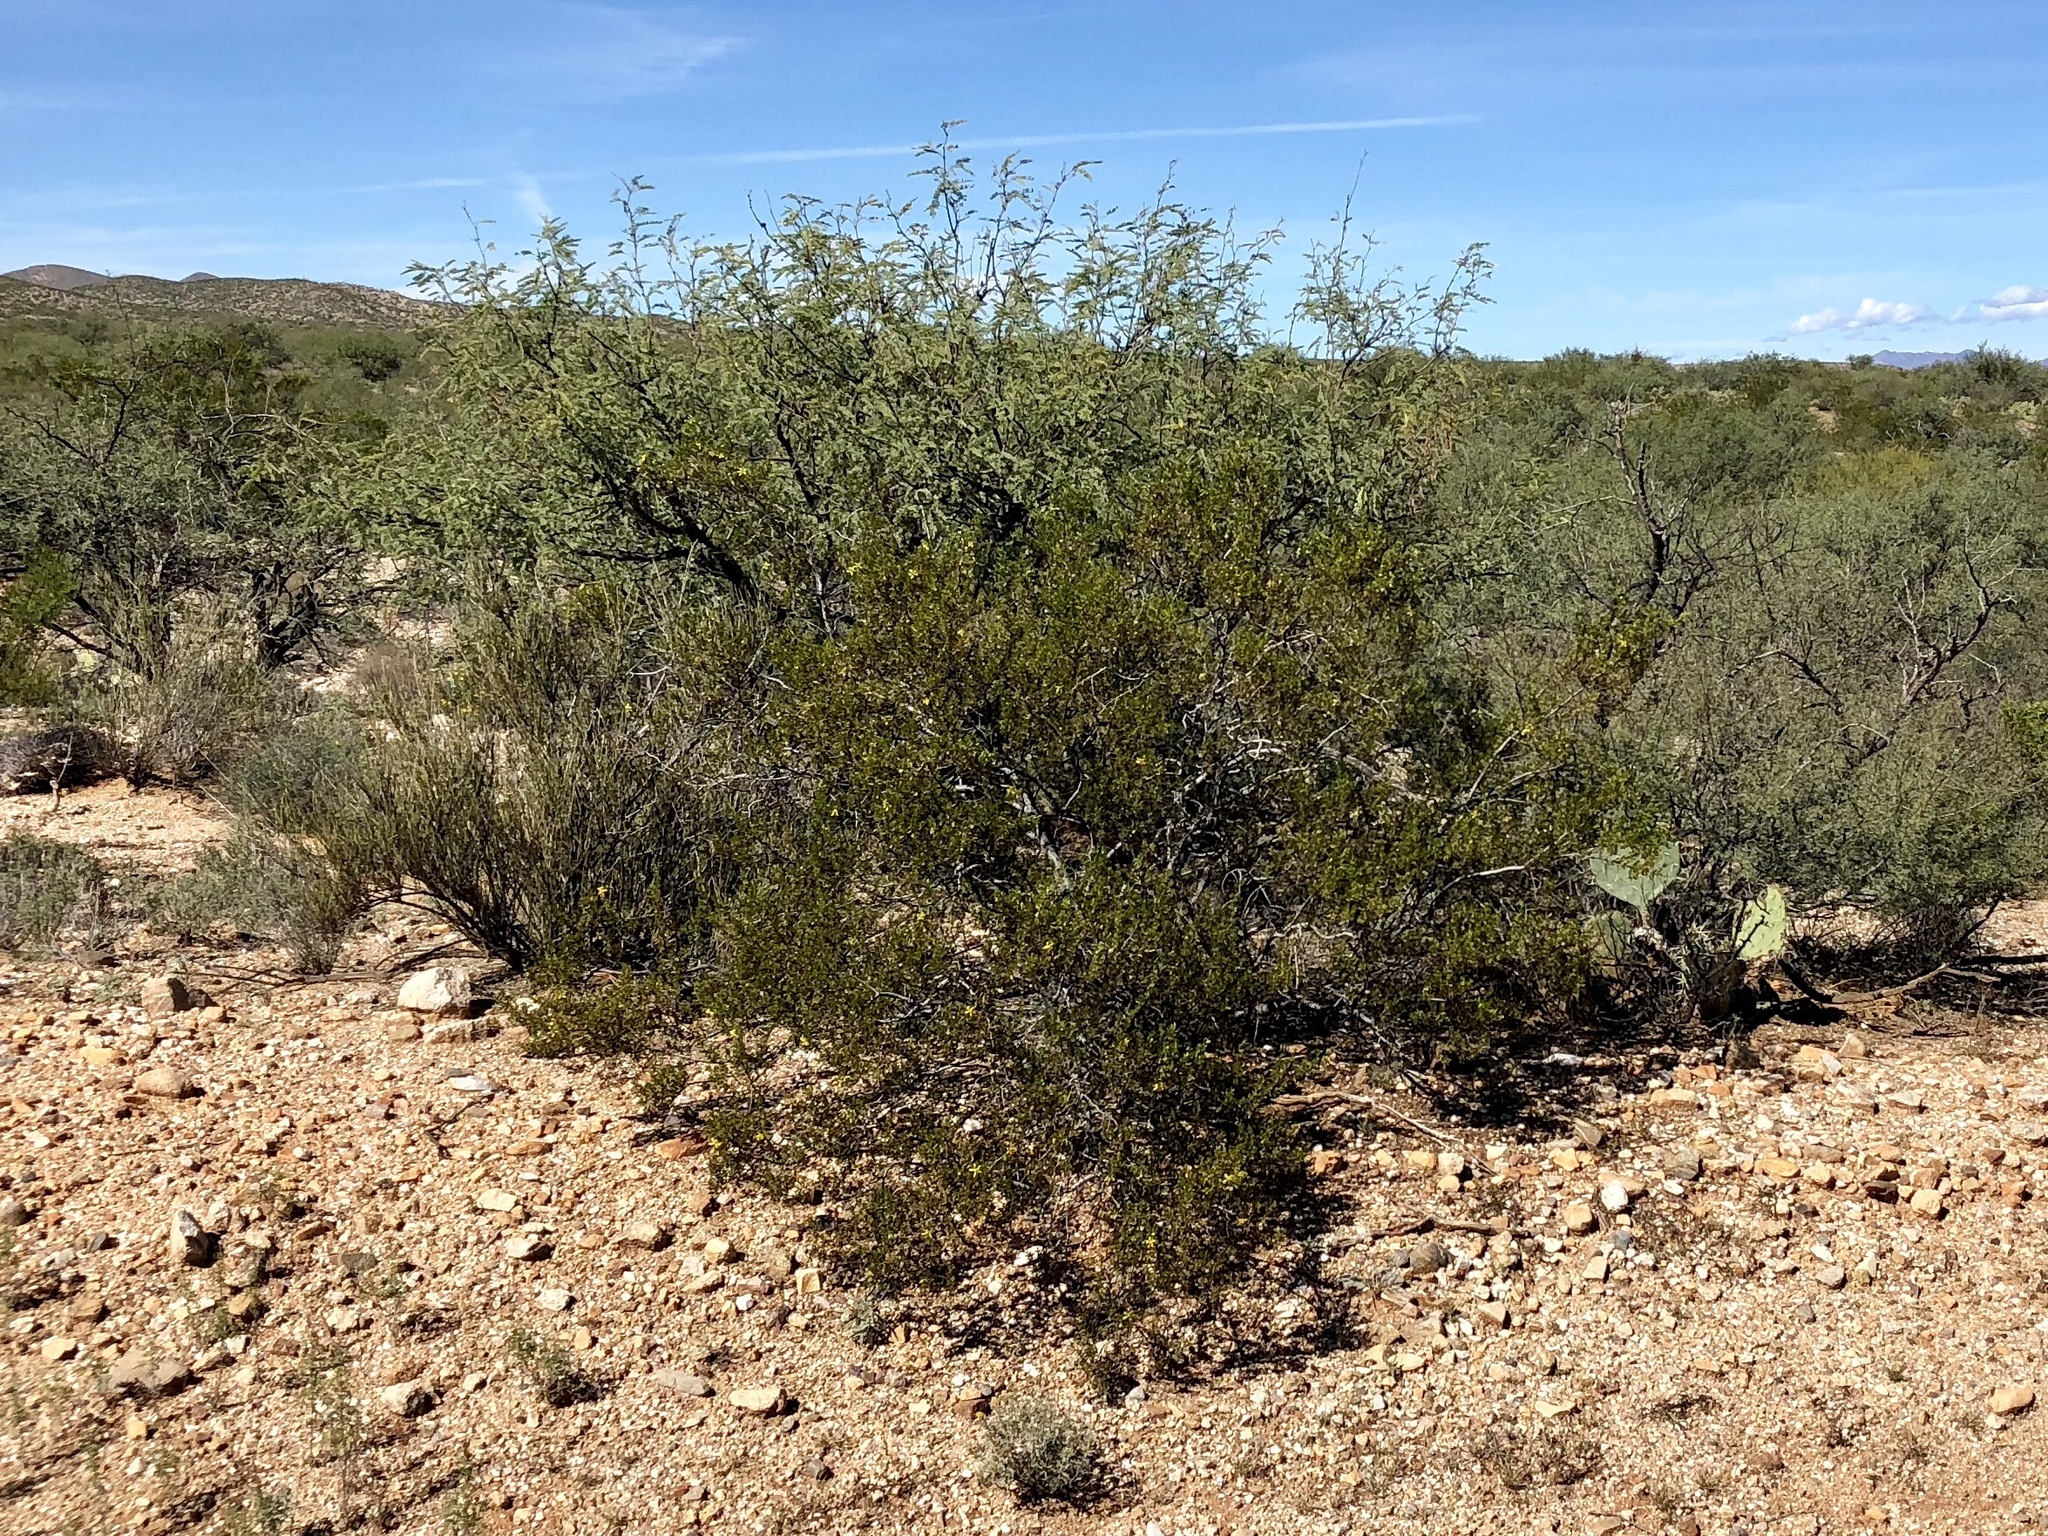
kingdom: Plantae
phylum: Tracheophyta
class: Magnoliopsida
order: Zygophyllales
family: Zygophyllaceae
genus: Larrea
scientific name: Larrea tridentata
